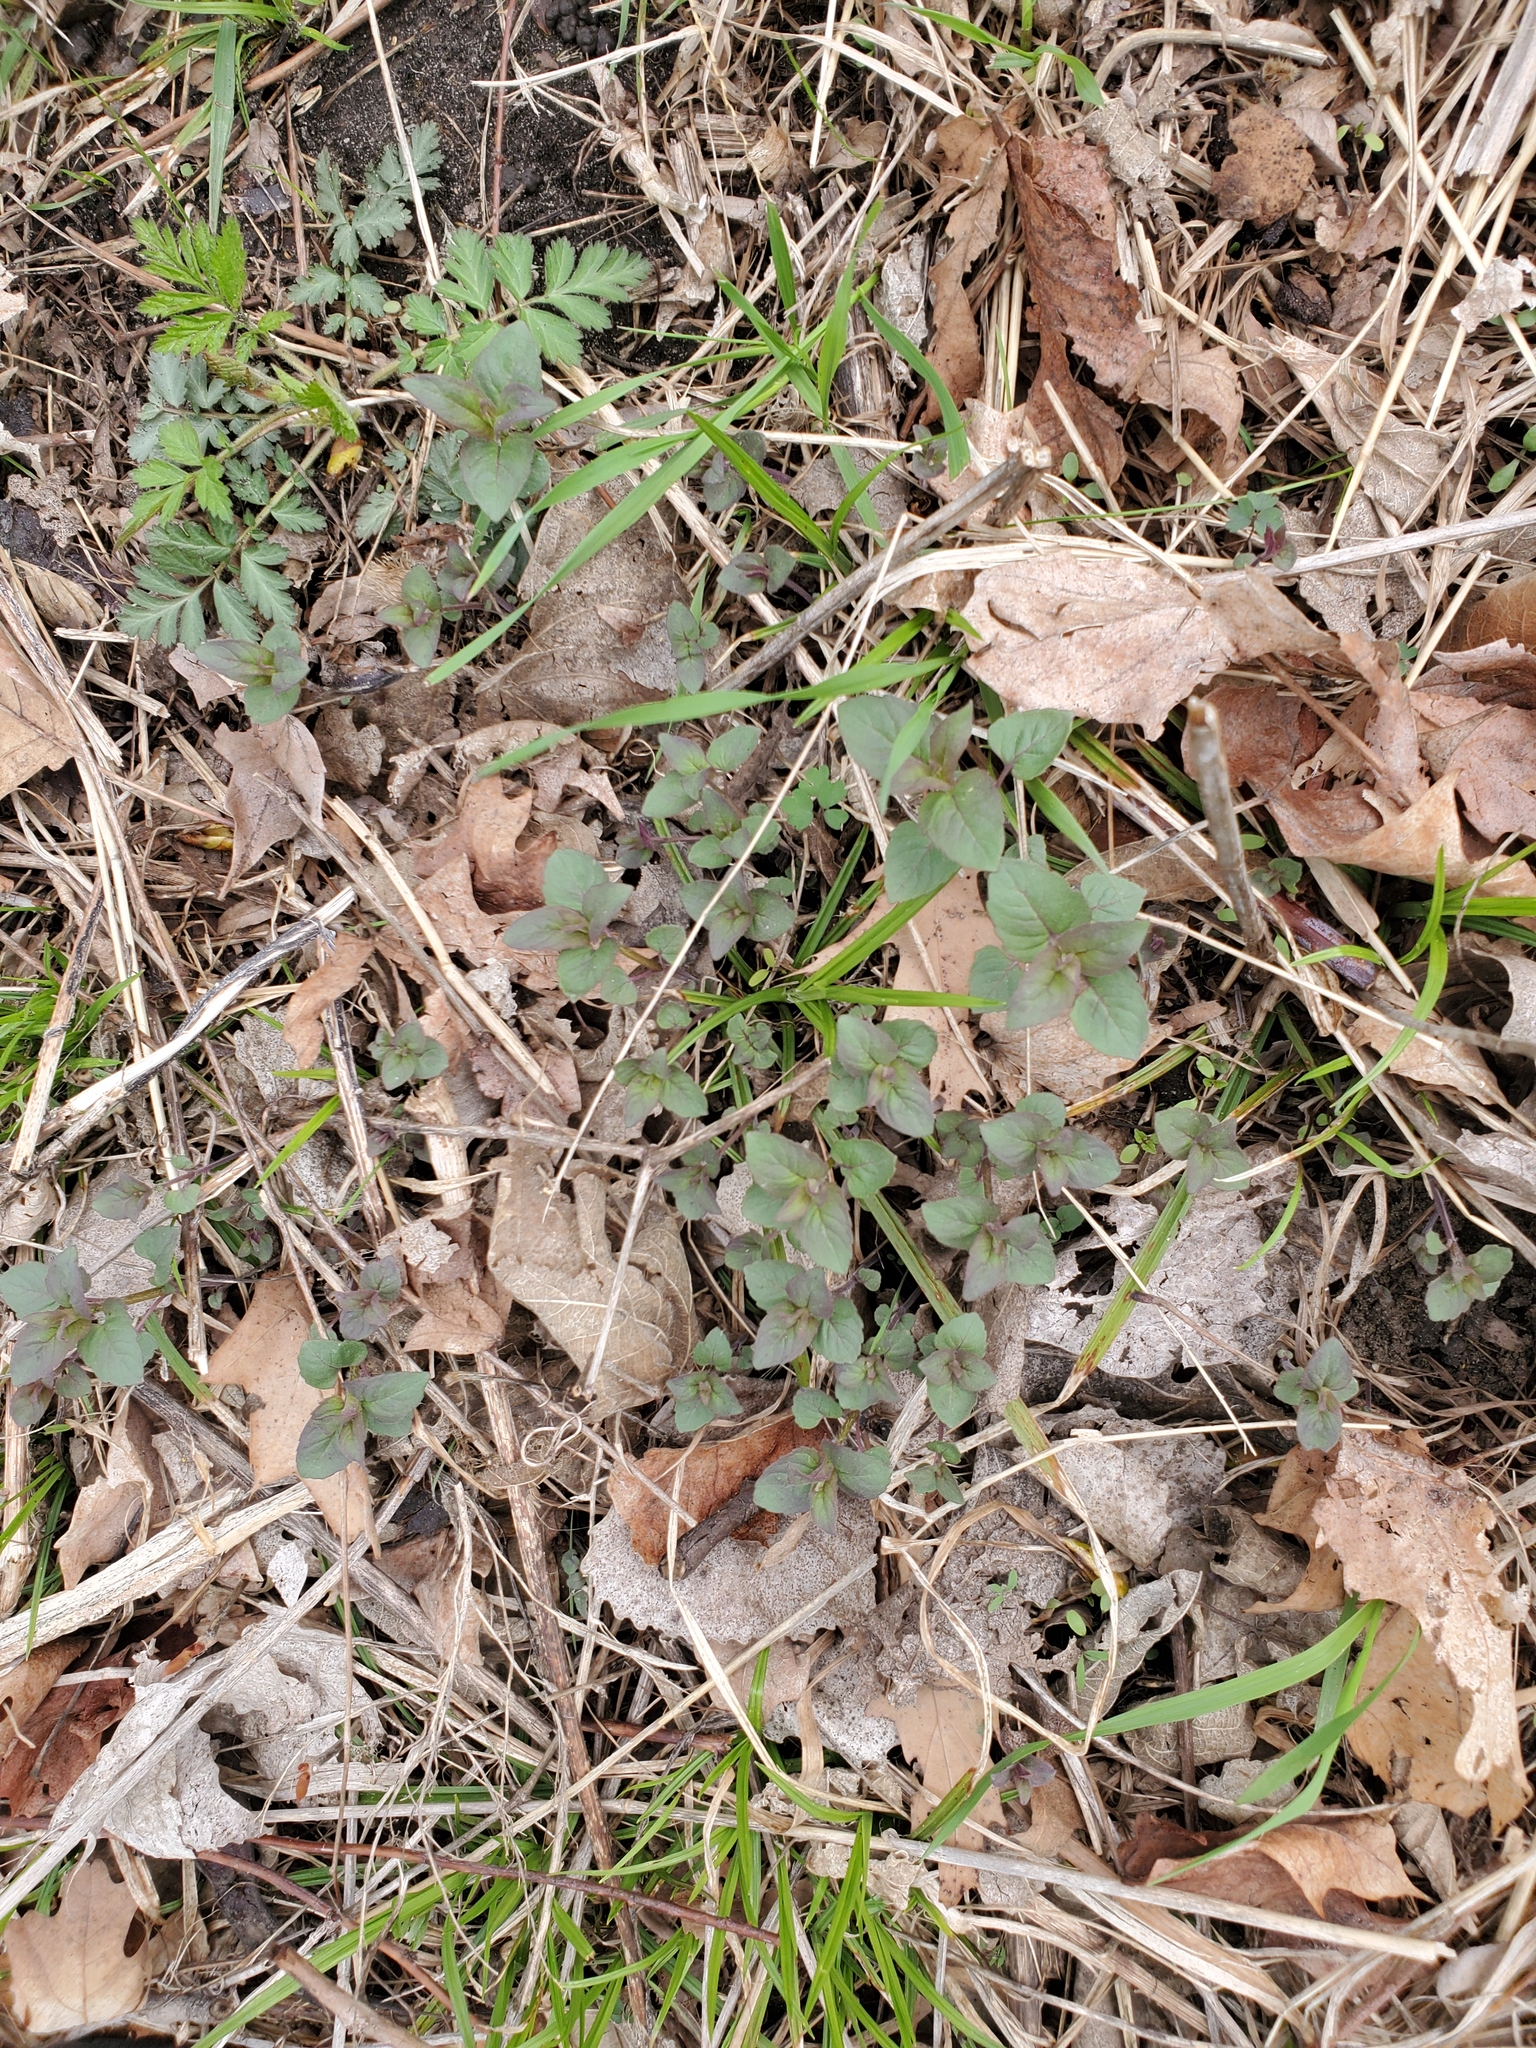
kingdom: Plantae
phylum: Tracheophyta
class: Magnoliopsida
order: Lamiales
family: Lamiaceae
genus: Monarda
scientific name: Monarda fistulosa
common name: Purple beebalm
